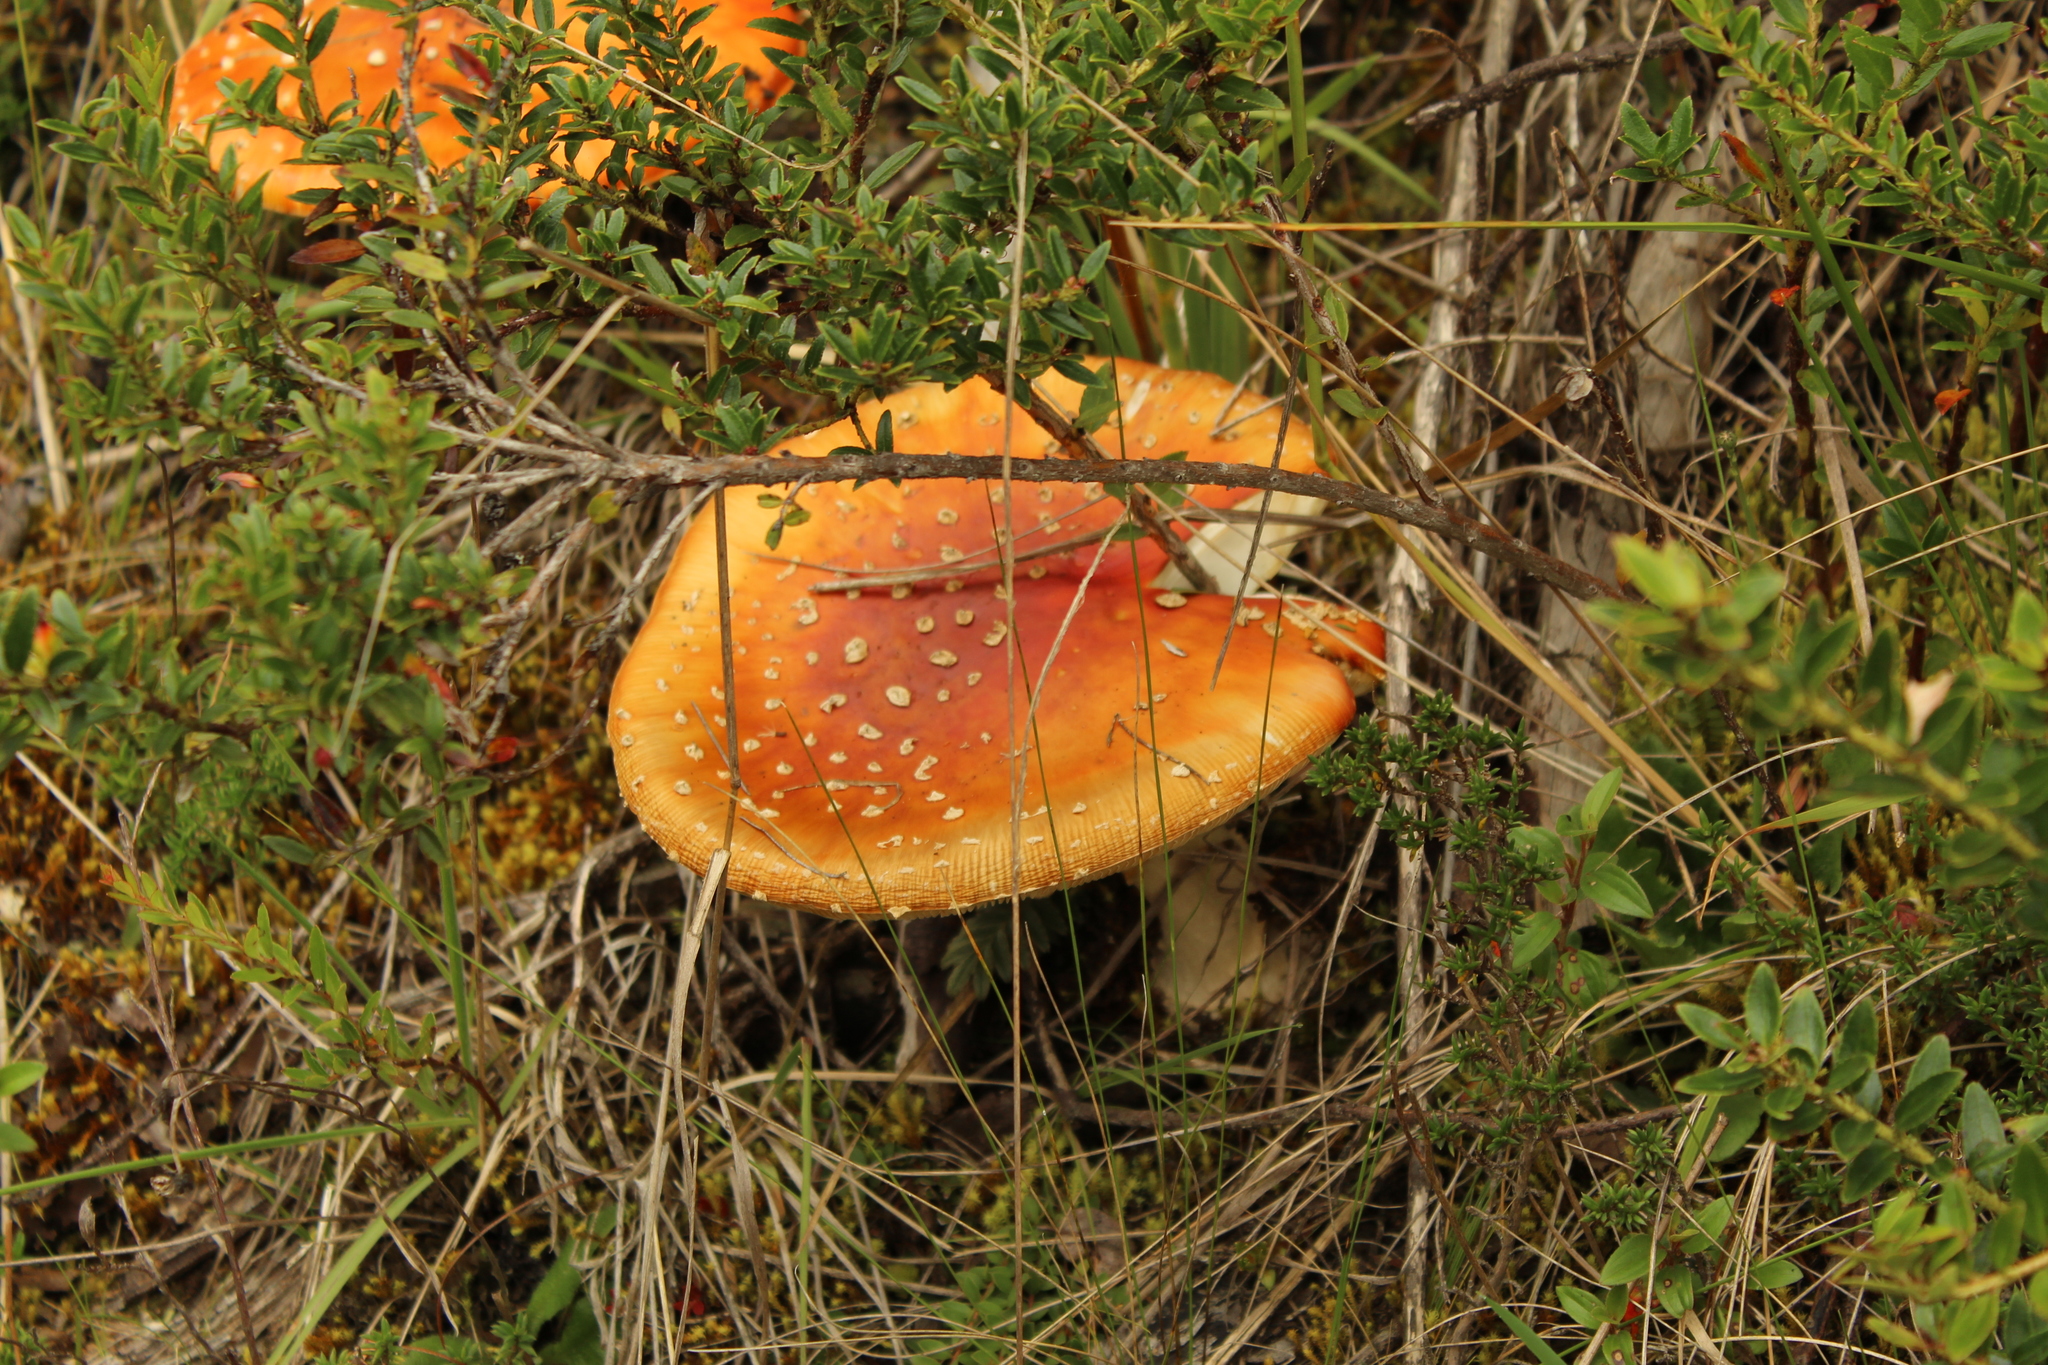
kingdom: Fungi
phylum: Basidiomycota
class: Agaricomycetes
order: Agaricales
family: Amanitaceae
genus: Amanita
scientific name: Amanita muscaria
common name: Fly agaric
